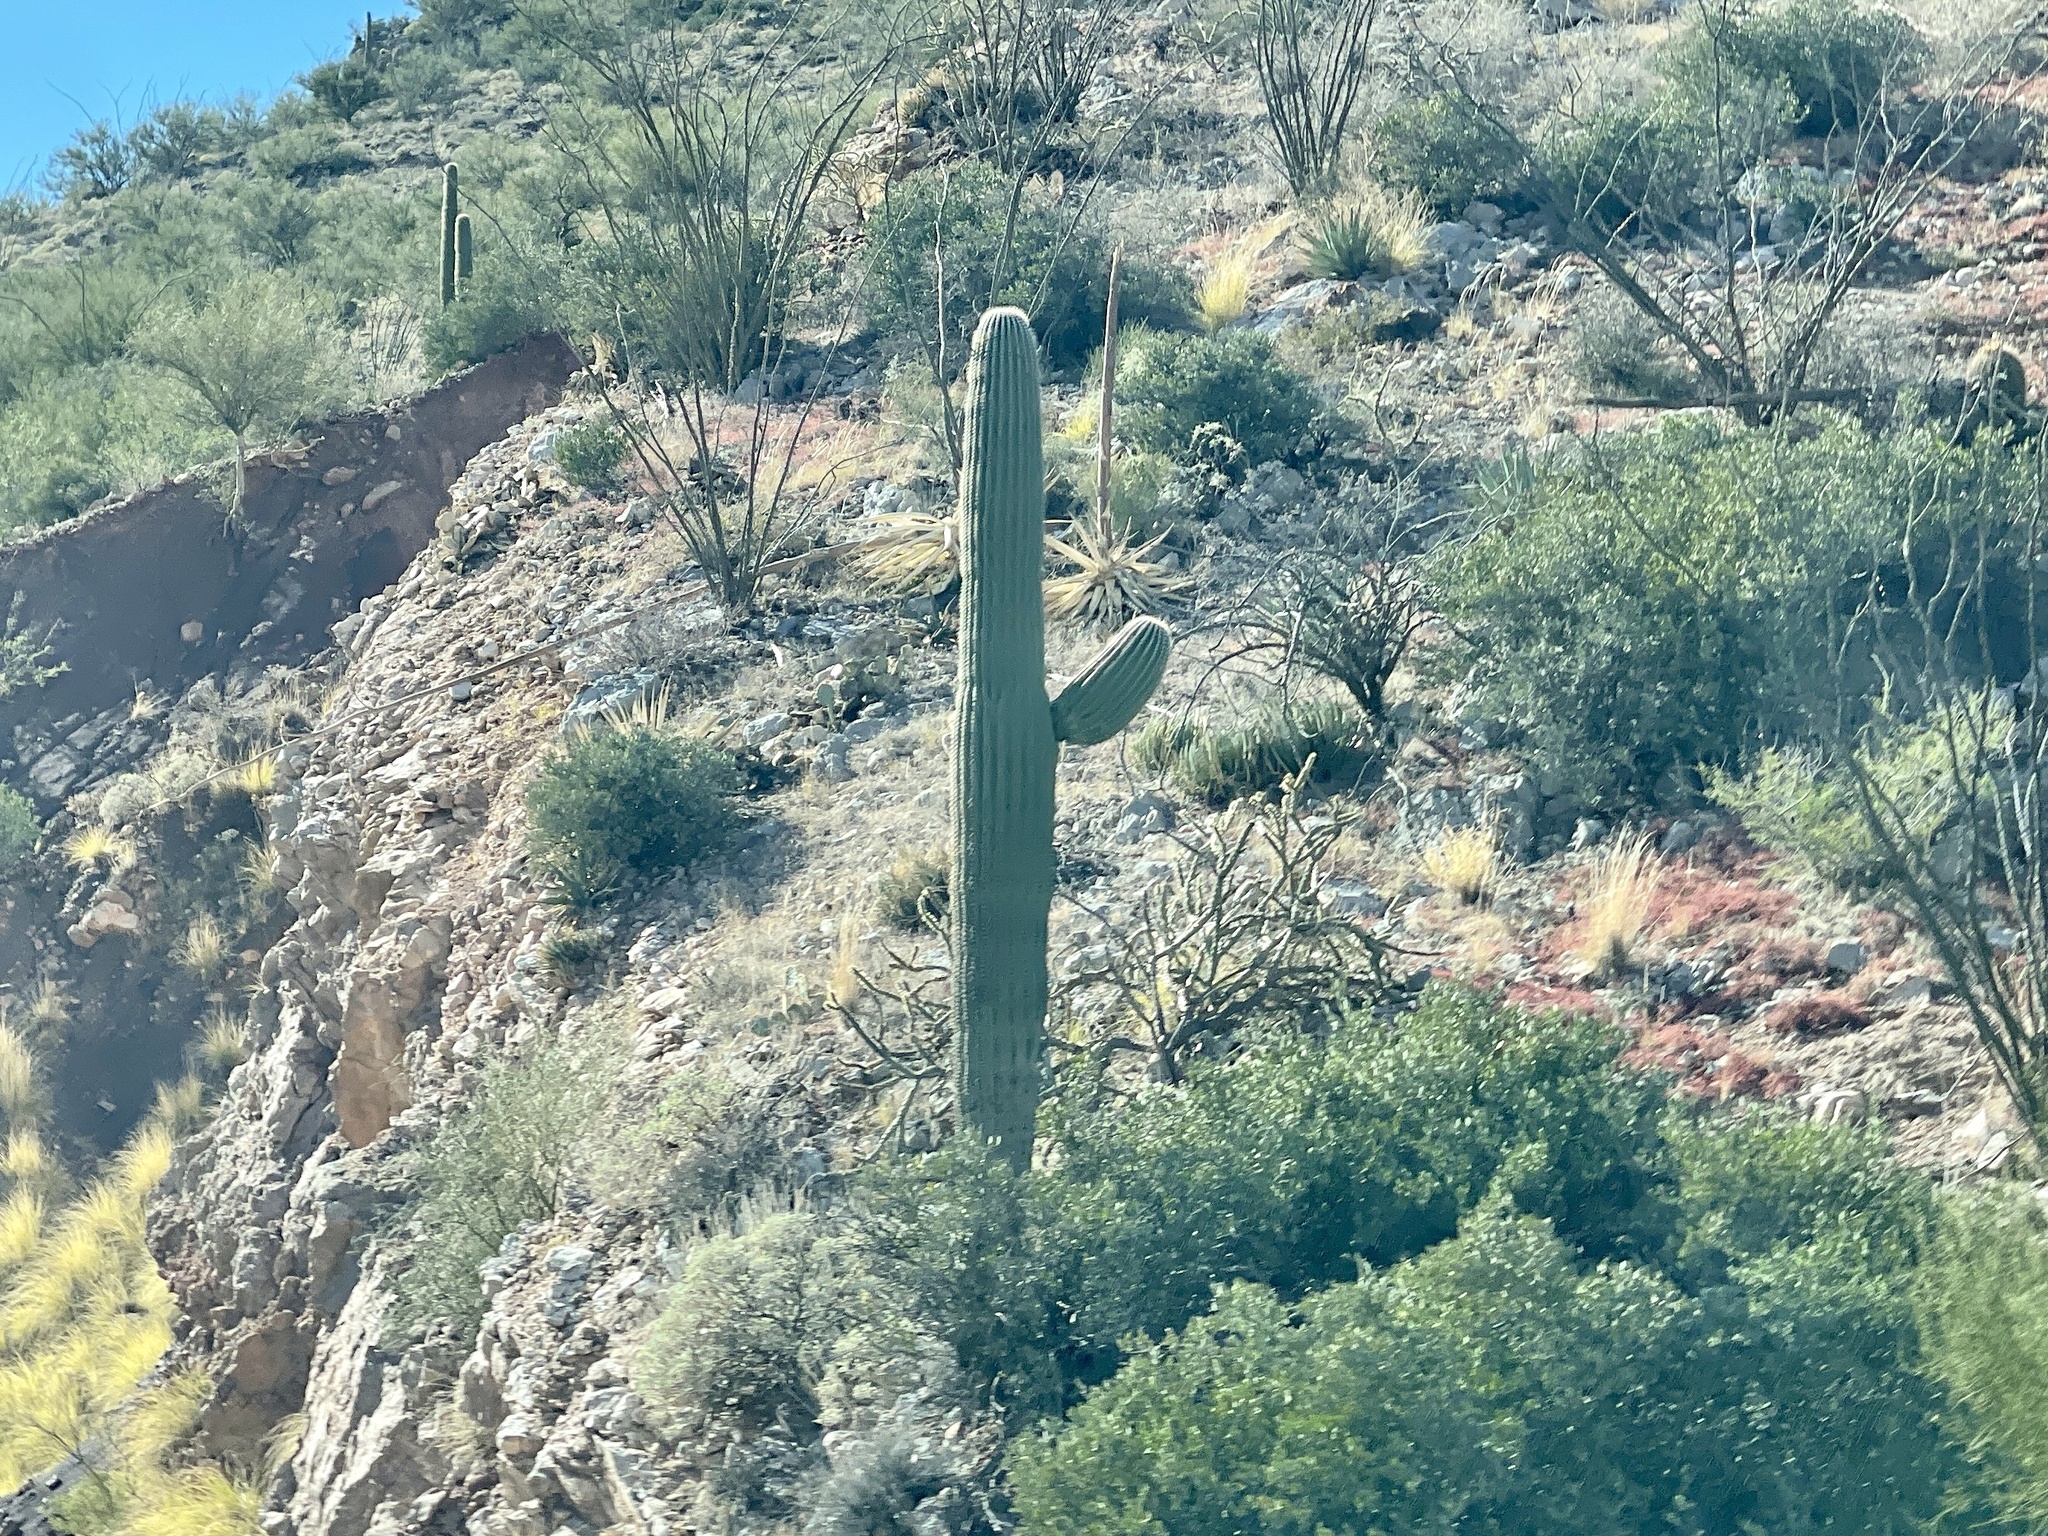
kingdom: Plantae
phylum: Tracheophyta
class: Magnoliopsida
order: Caryophyllales
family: Cactaceae
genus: Carnegiea
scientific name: Carnegiea gigantea
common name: Saguaro
